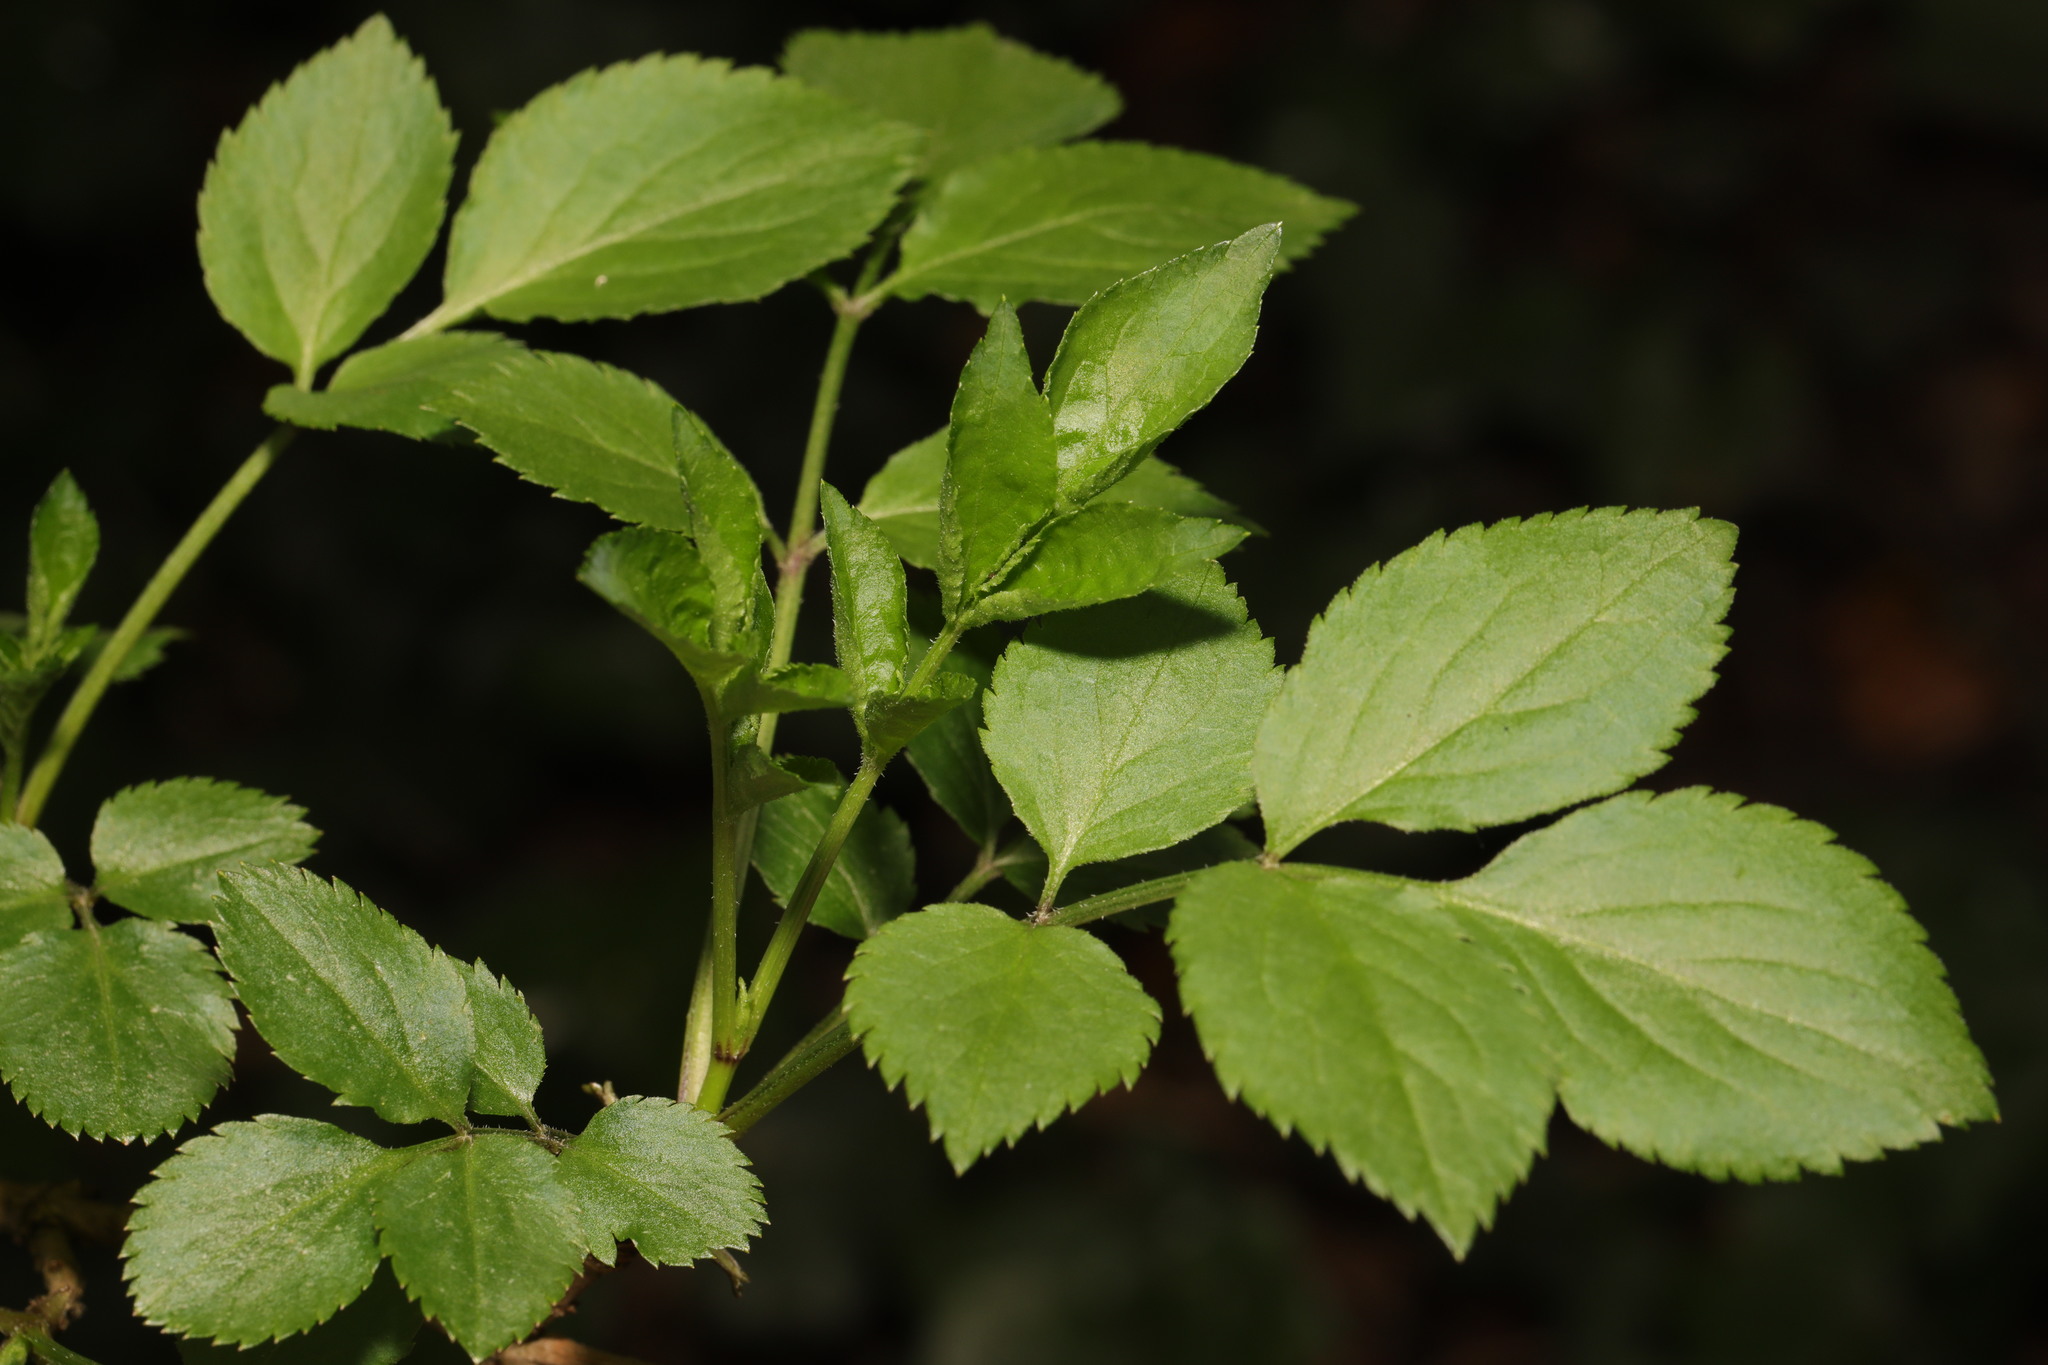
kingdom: Plantae
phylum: Tracheophyta
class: Magnoliopsida
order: Dipsacales
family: Viburnaceae
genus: Sambucus
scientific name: Sambucus nigra
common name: Elder
